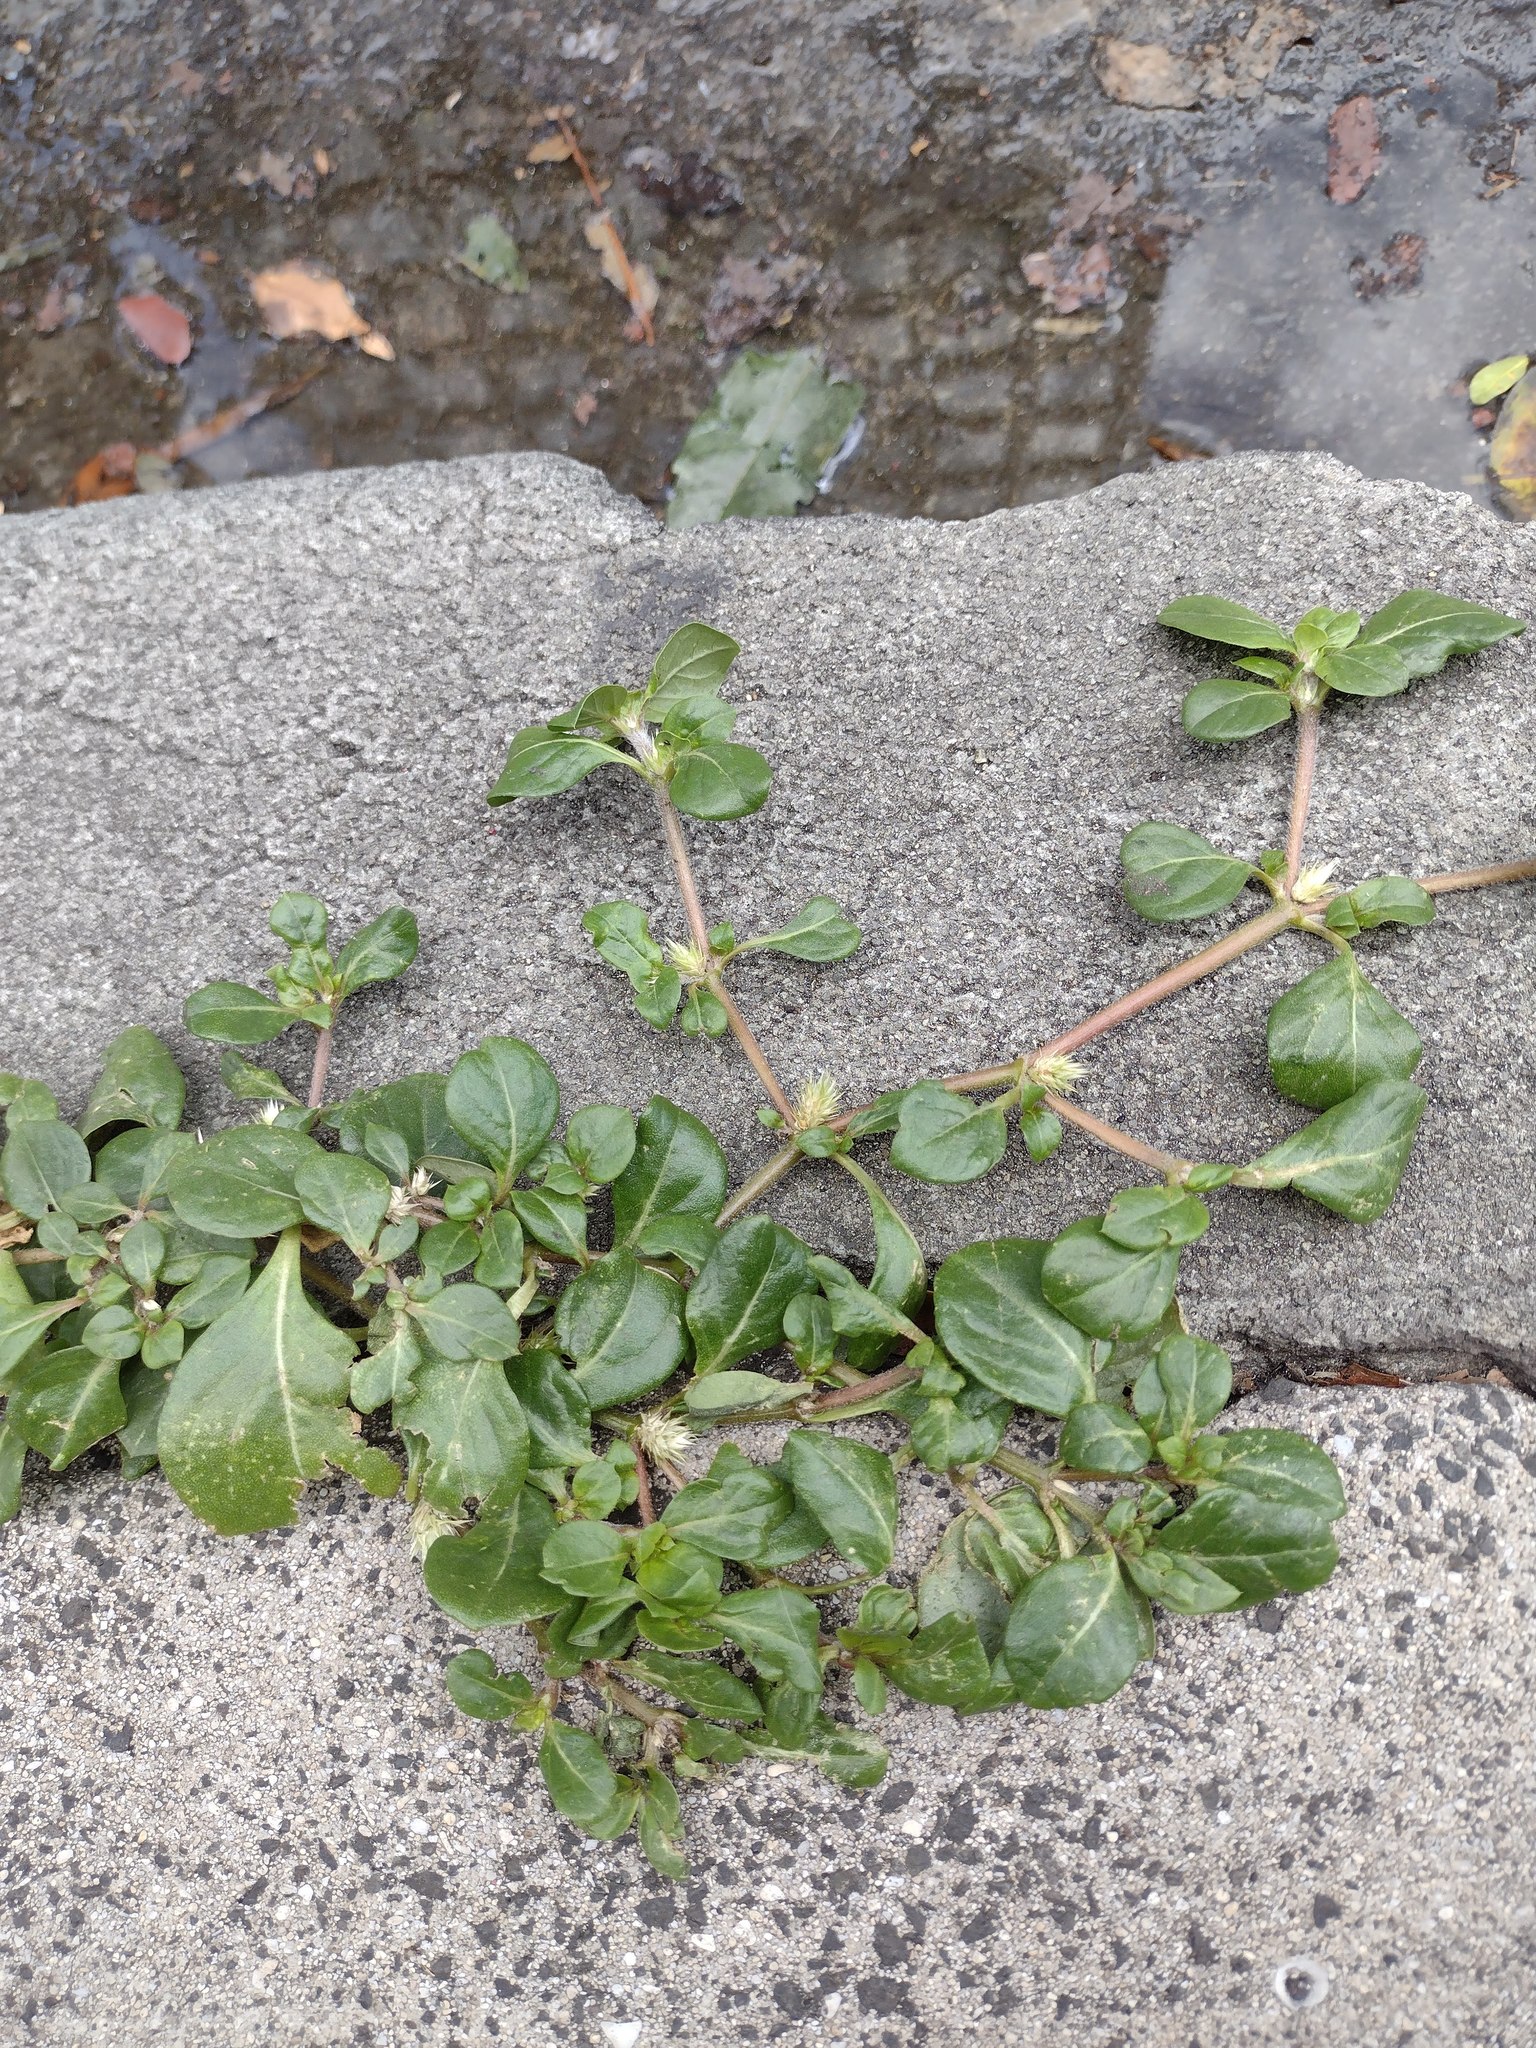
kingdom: Plantae
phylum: Tracheophyta
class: Magnoliopsida
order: Caryophyllales
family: Amaranthaceae
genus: Alternanthera
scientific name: Alternanthera pungens
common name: Khakiweed
